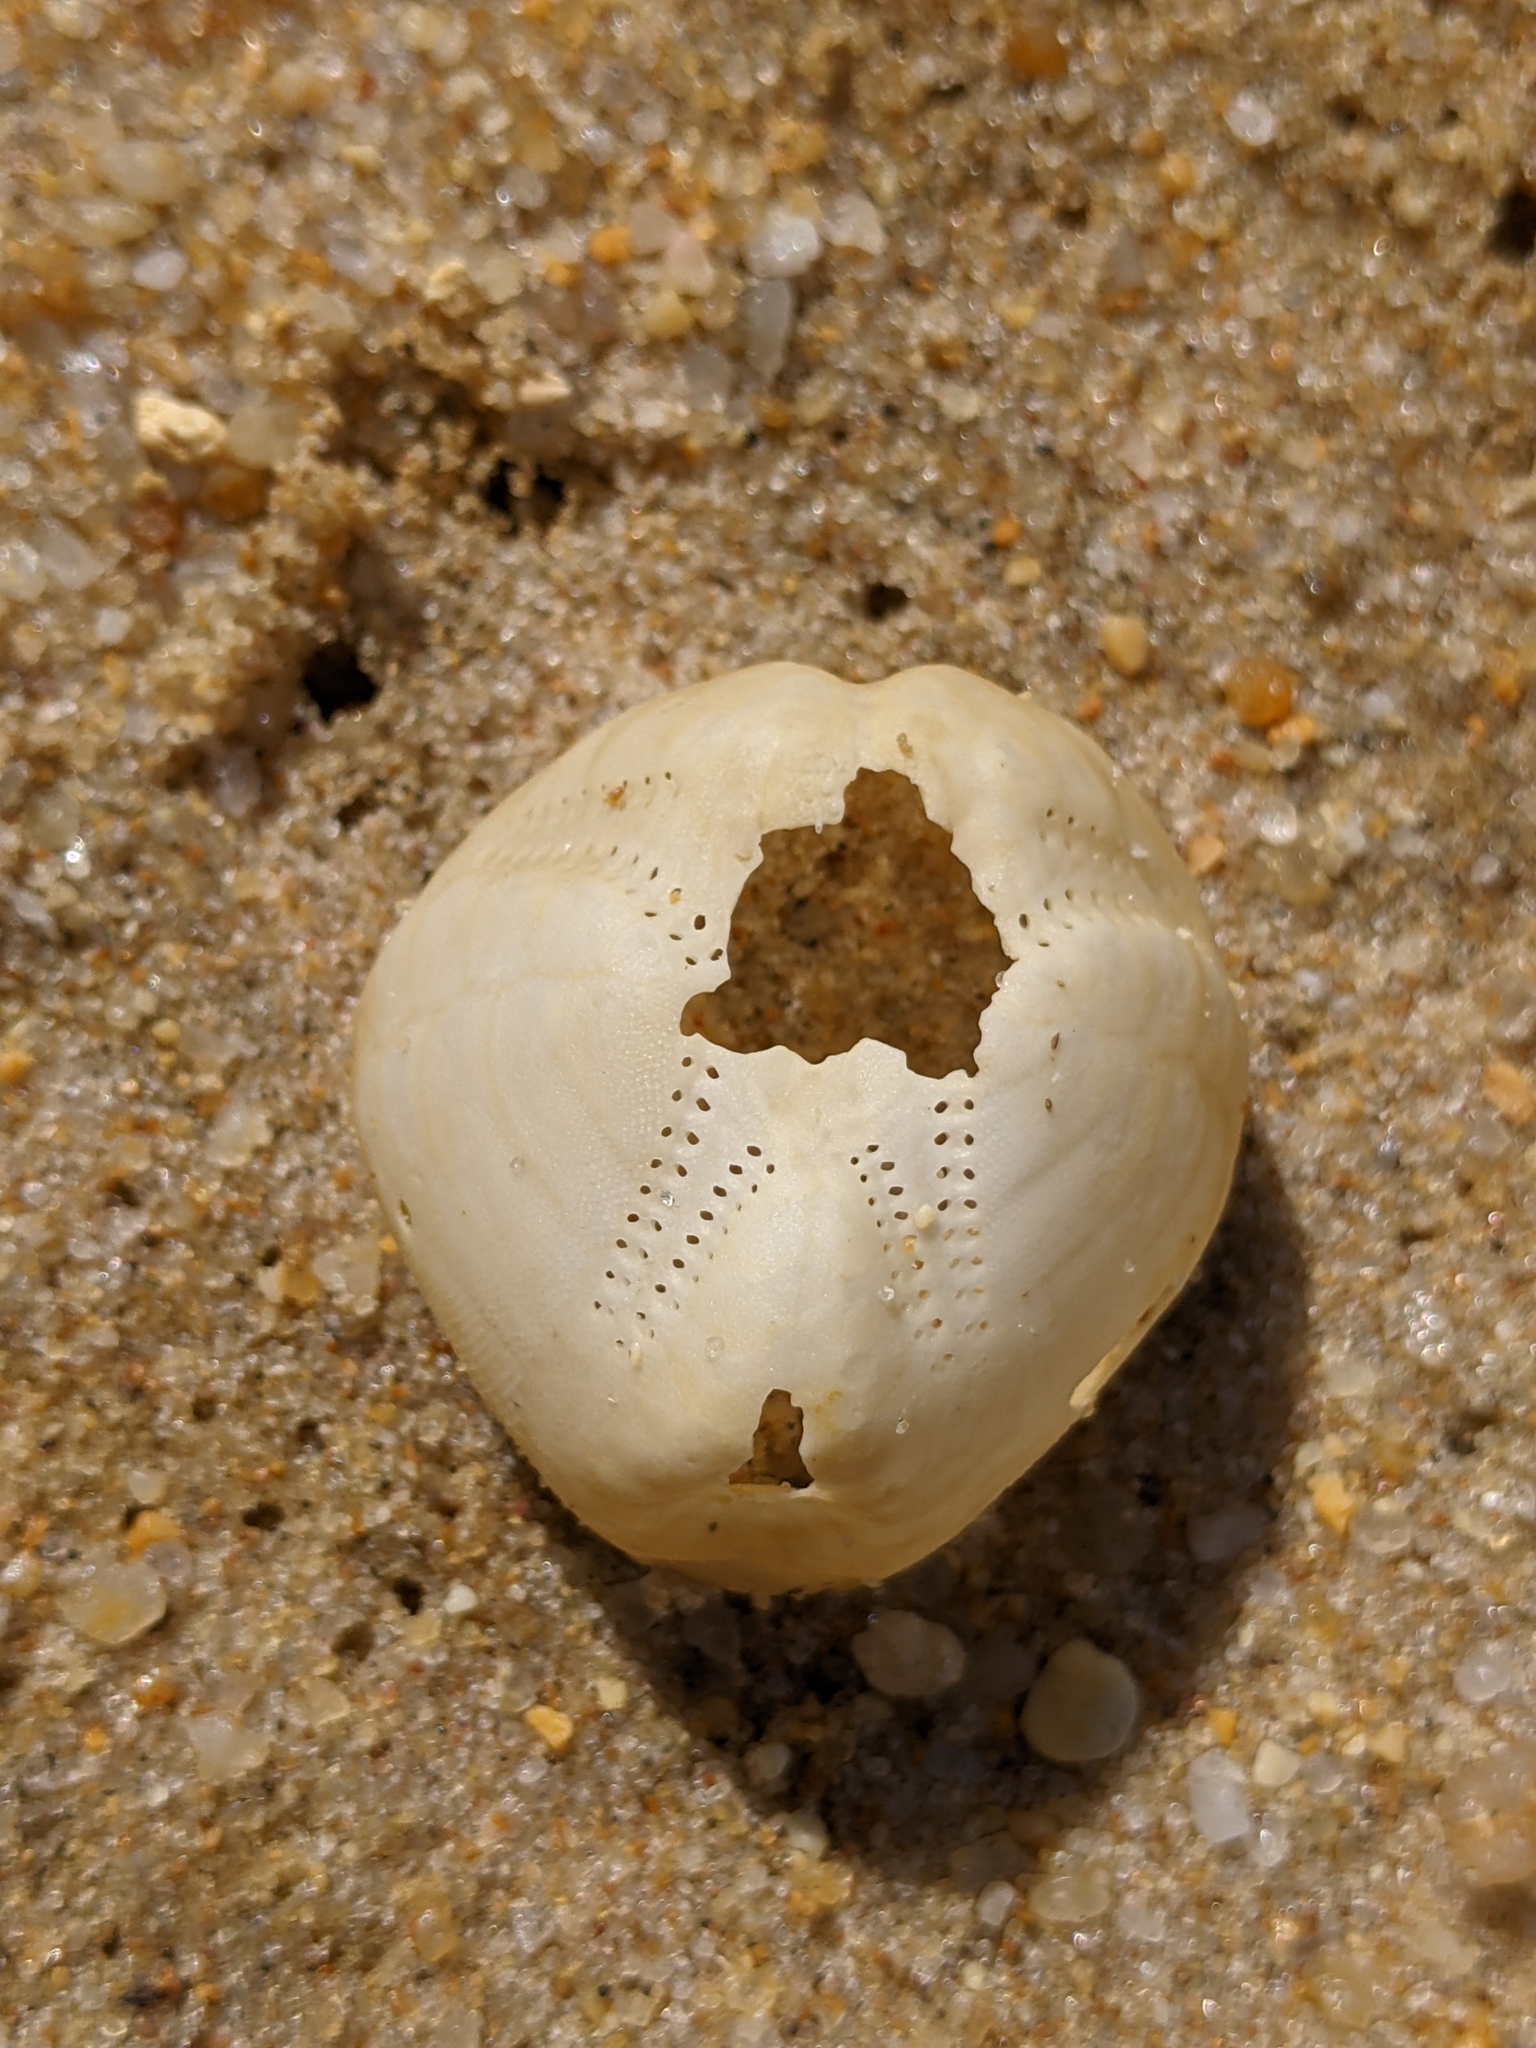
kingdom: Animalia
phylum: Echinodermata
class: Echinoidea
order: Spatangoida
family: Loveniidae
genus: Echinocardium
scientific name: Echinocardium mediterraneum
